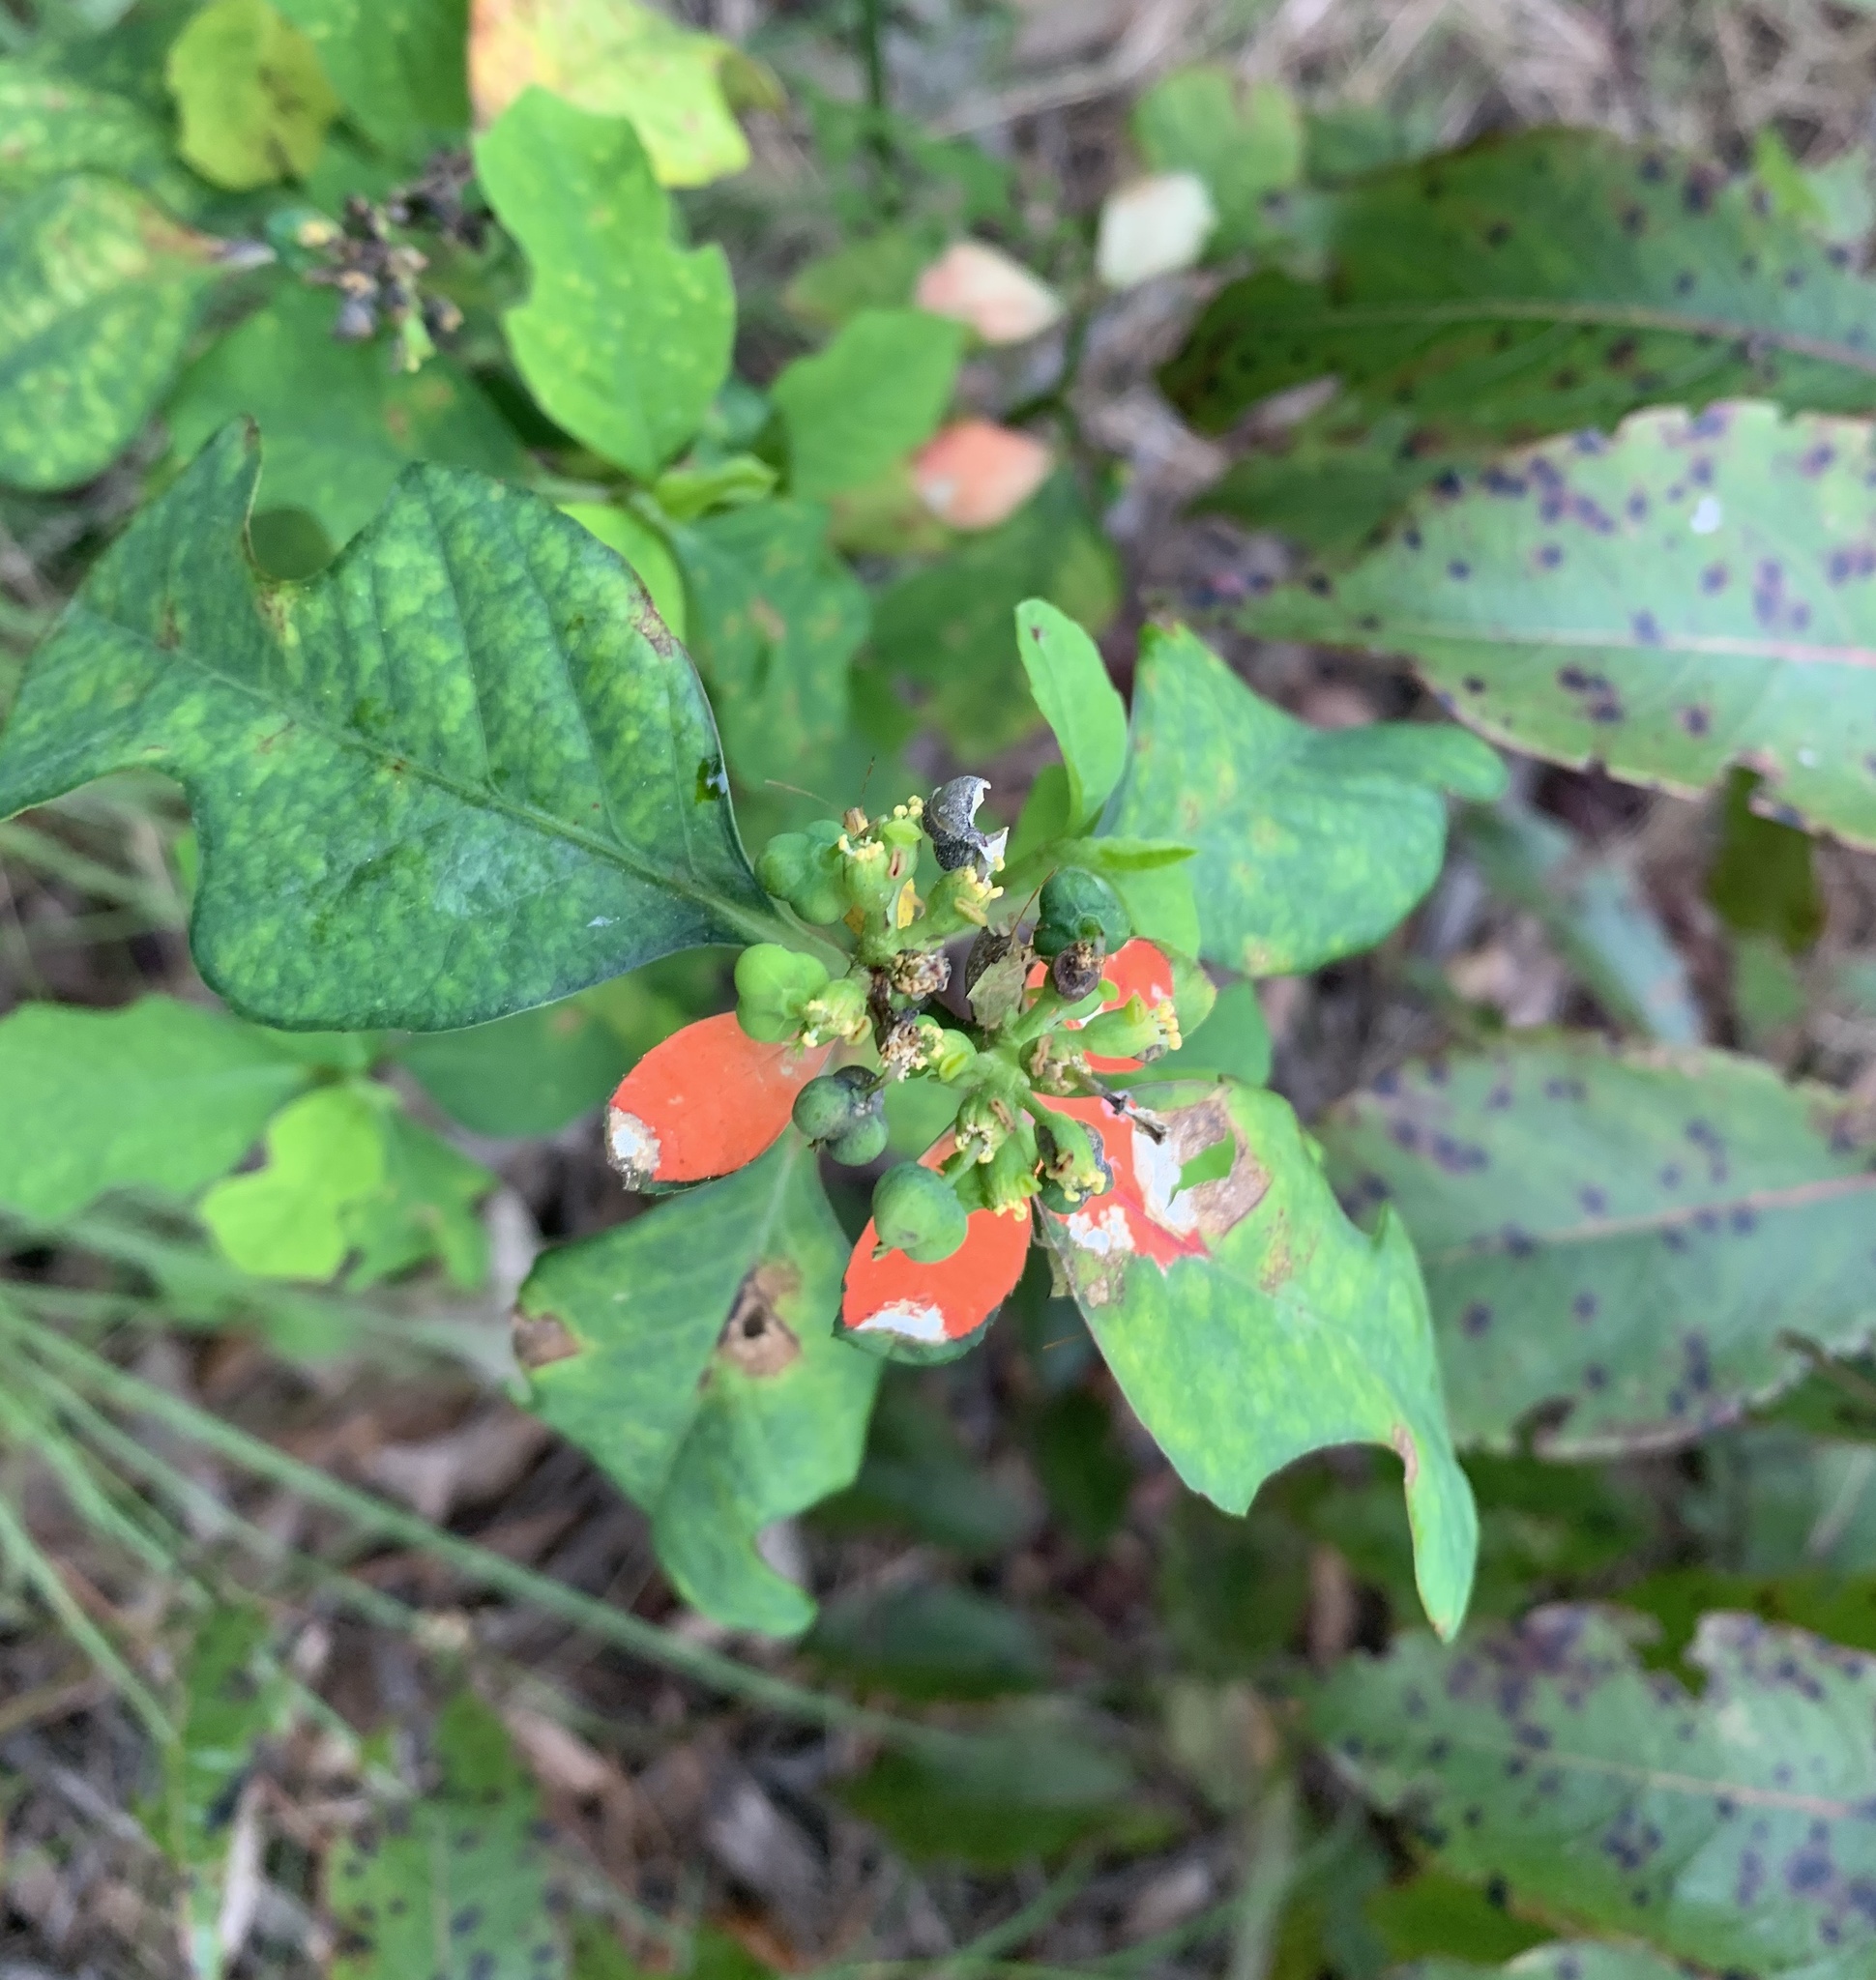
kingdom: Plantae
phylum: Tracheophyta
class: Magnoliopsida
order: Malpighiales
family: Euphorbiaceae
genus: Euphorbia
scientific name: Euphorbia heterophylla
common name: Mexican fireplant
